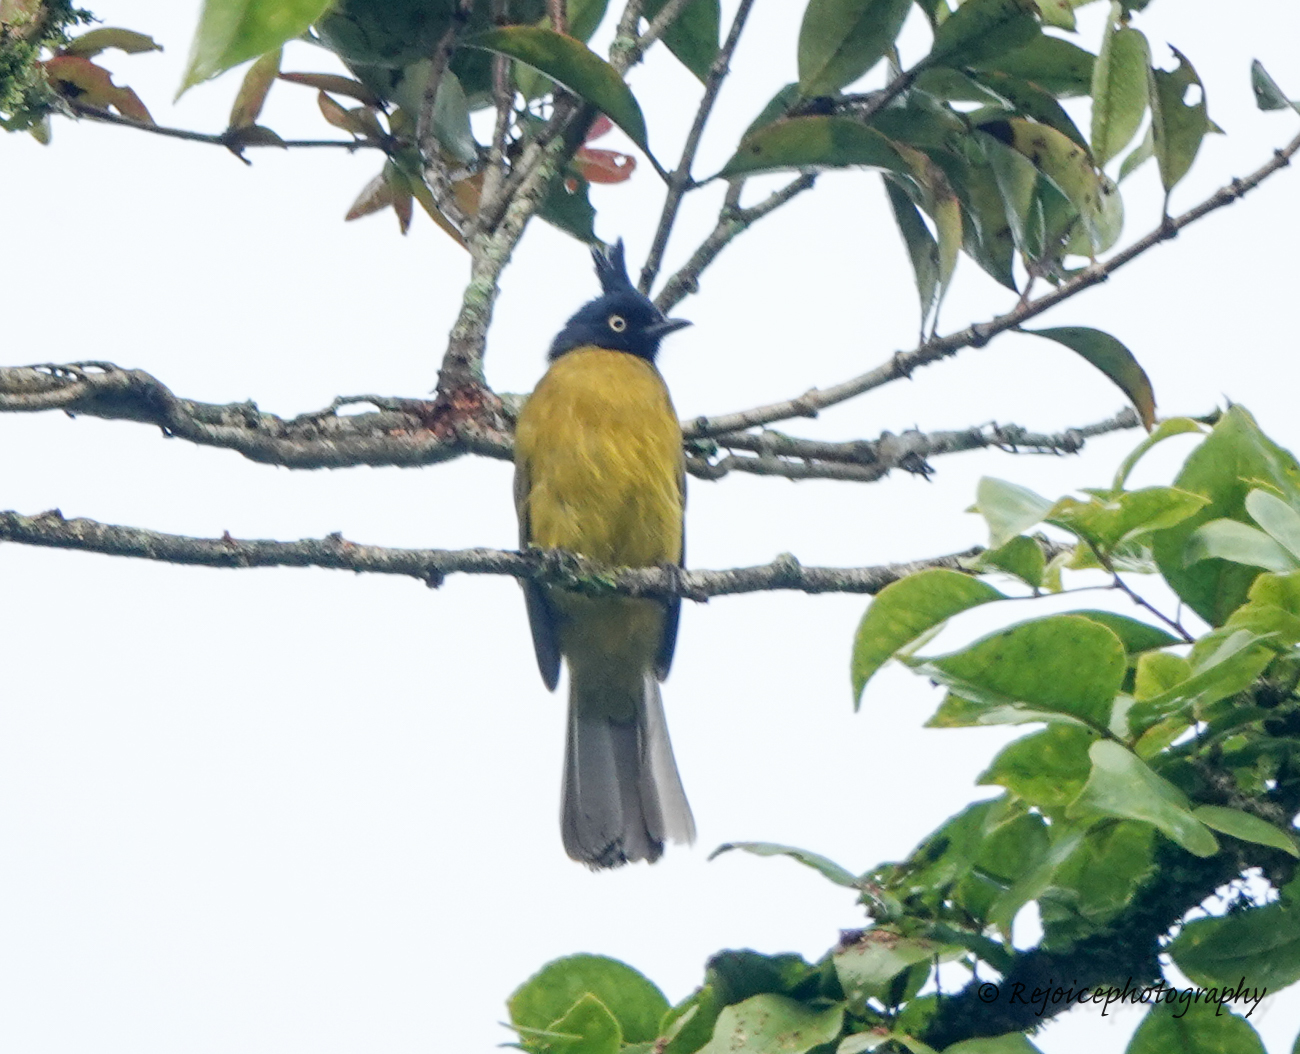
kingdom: Animalia
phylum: Chordata
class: Aves
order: Passeriformes
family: Pycnonotidae
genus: Pycnonotus
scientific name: Pycnonotus flaviventris
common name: Black-crested bulbul
